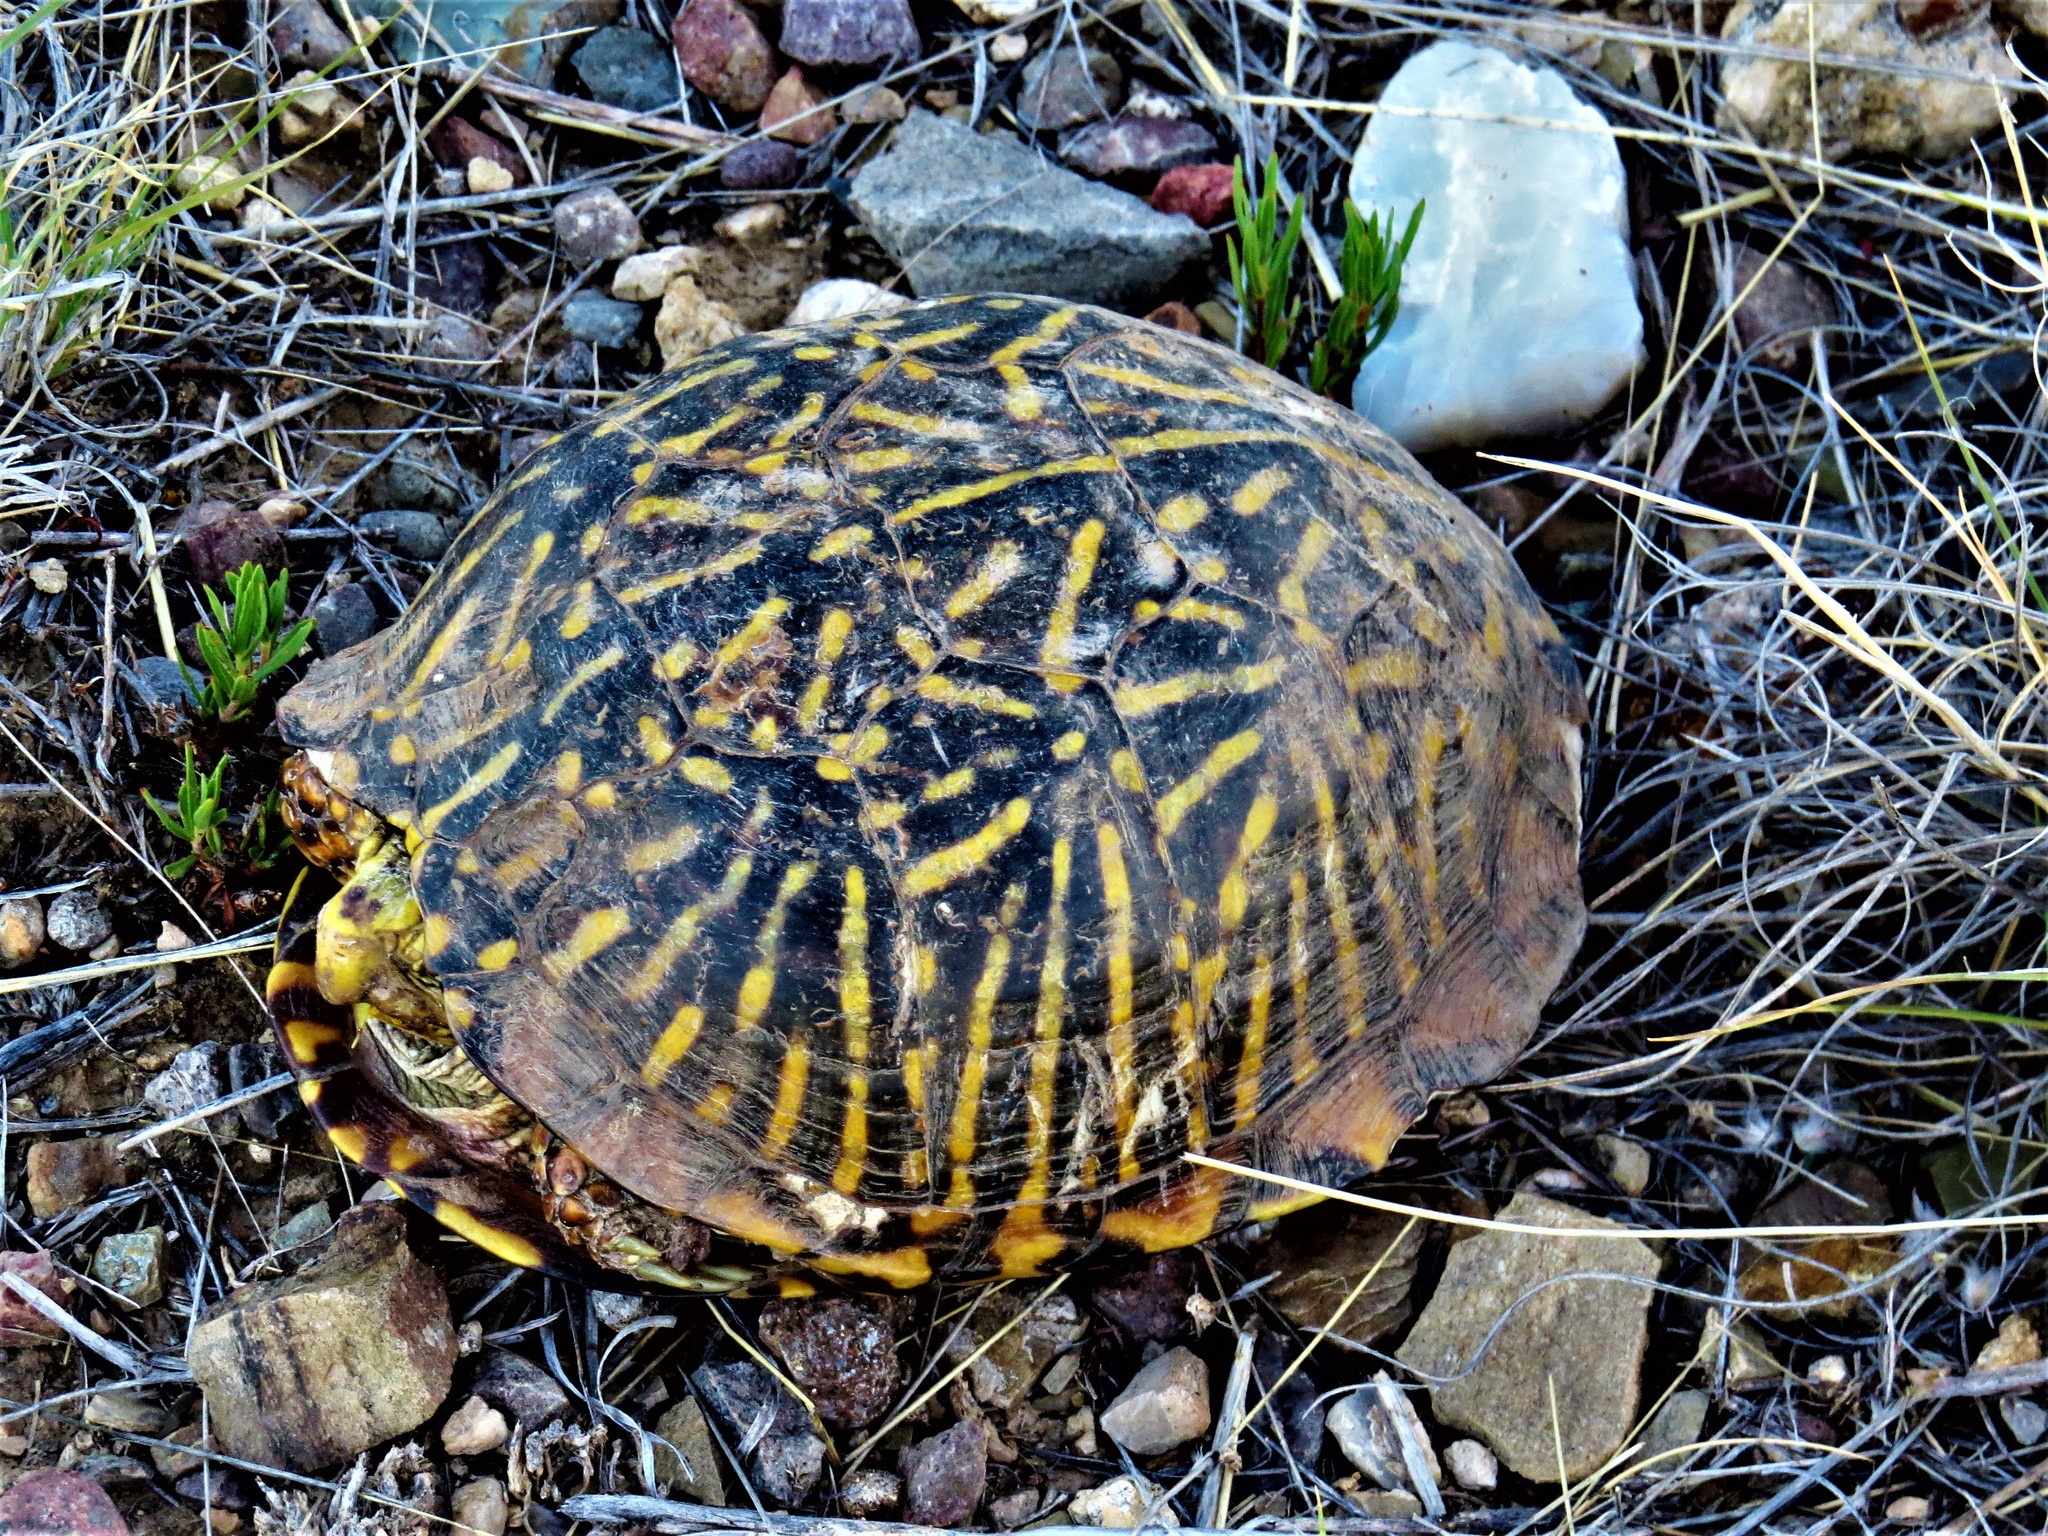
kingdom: Animalia
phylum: Chordata
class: Testudines
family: Emydidae
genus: Terrapene
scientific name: Terrapene ornata
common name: Western box turtle
